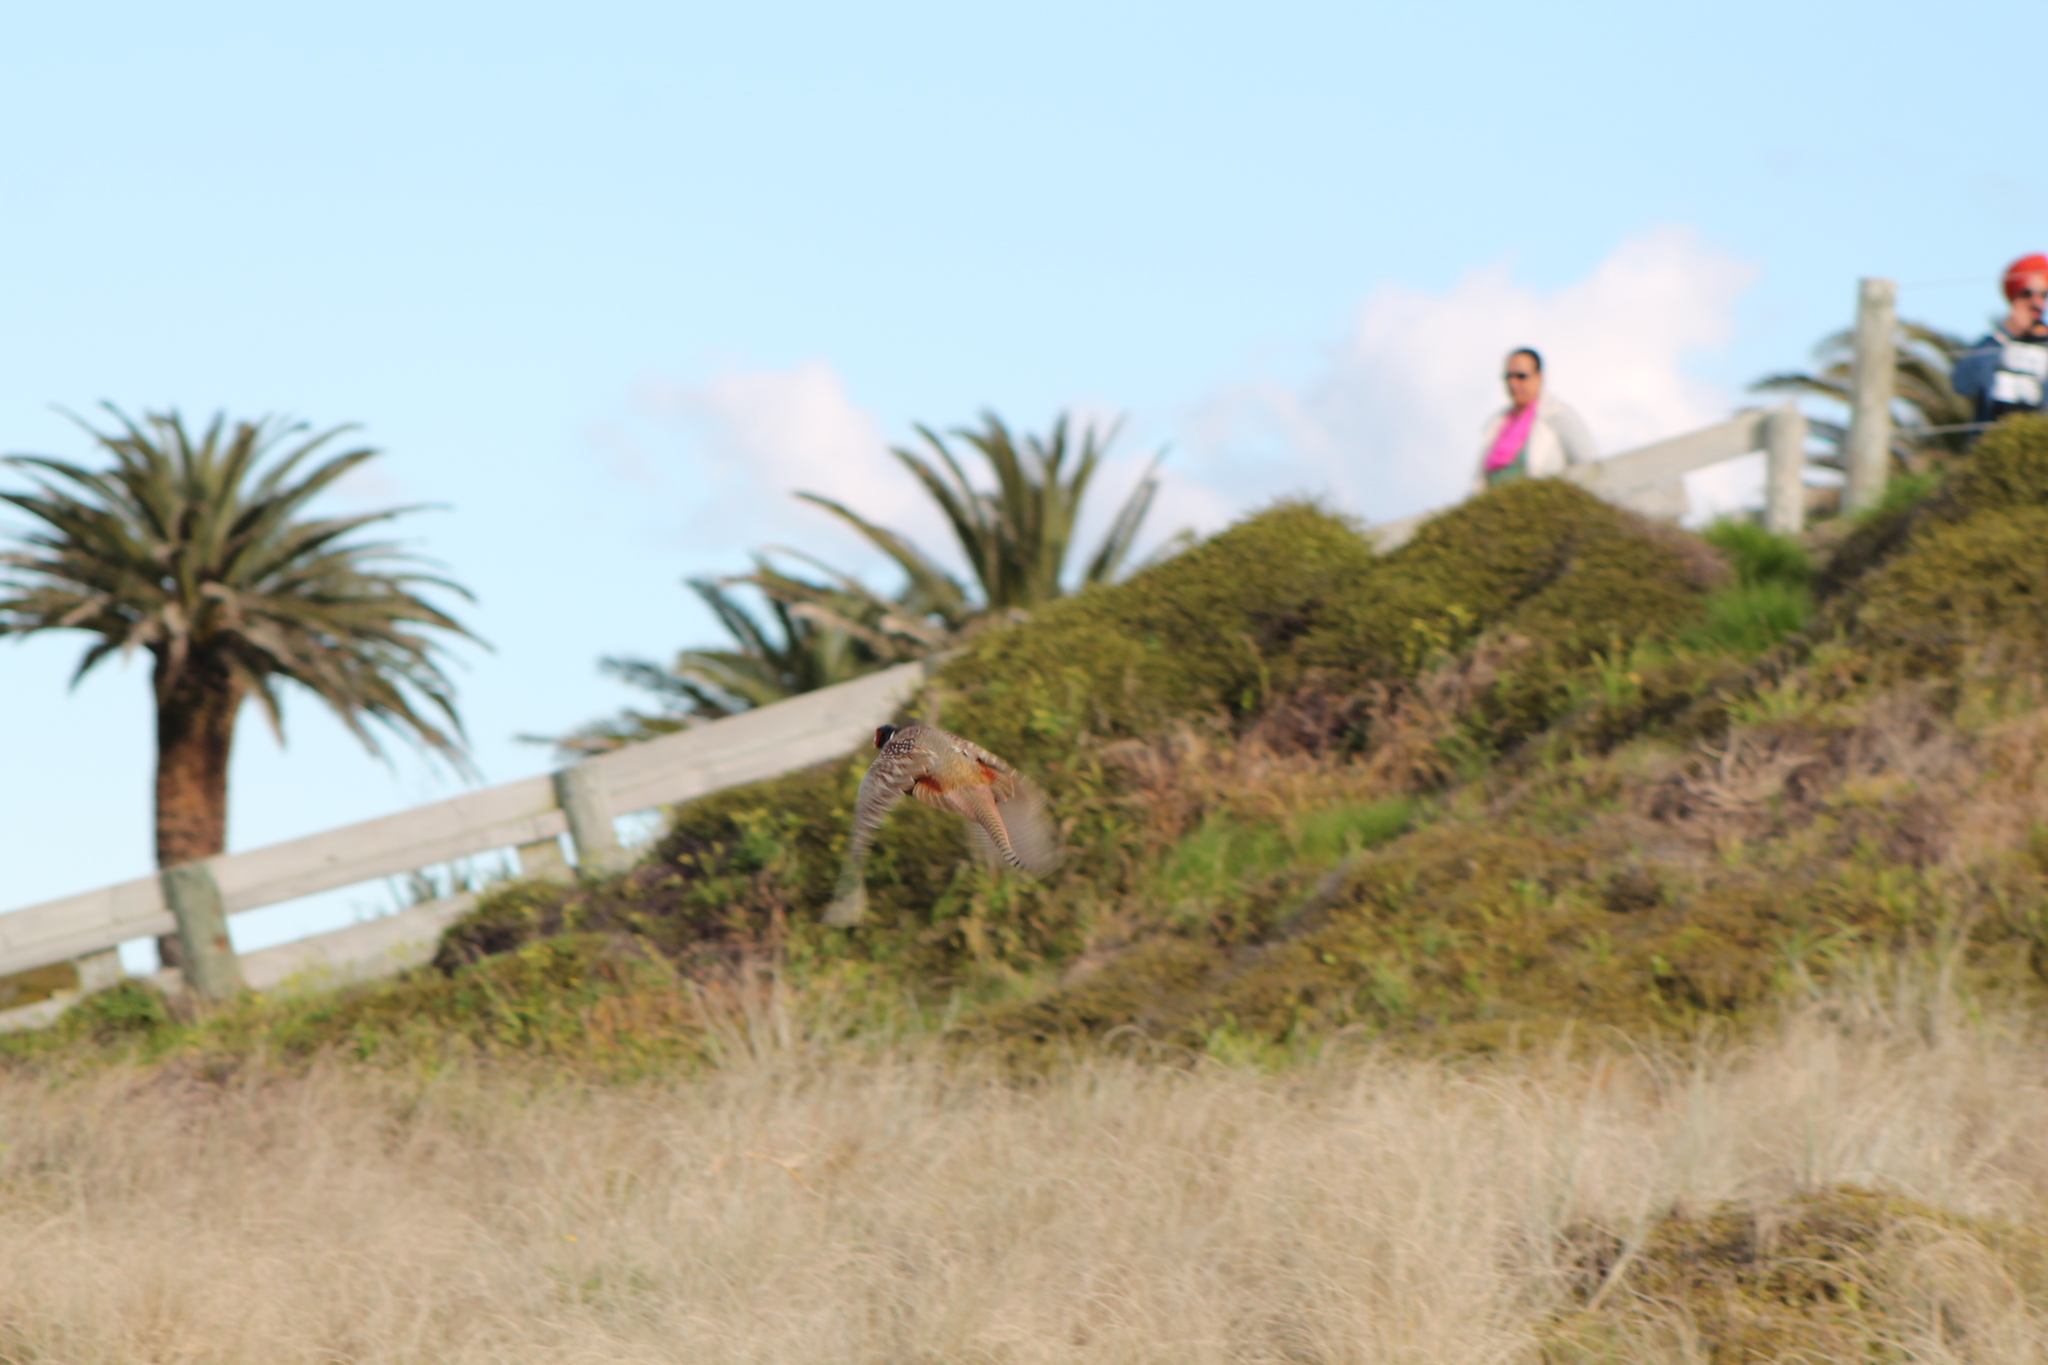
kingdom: Animalia
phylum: Chordata
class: Aves
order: Galliformes
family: Phasianidae
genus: Phasianus
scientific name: Phasianus colchicus
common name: Common pheasant
